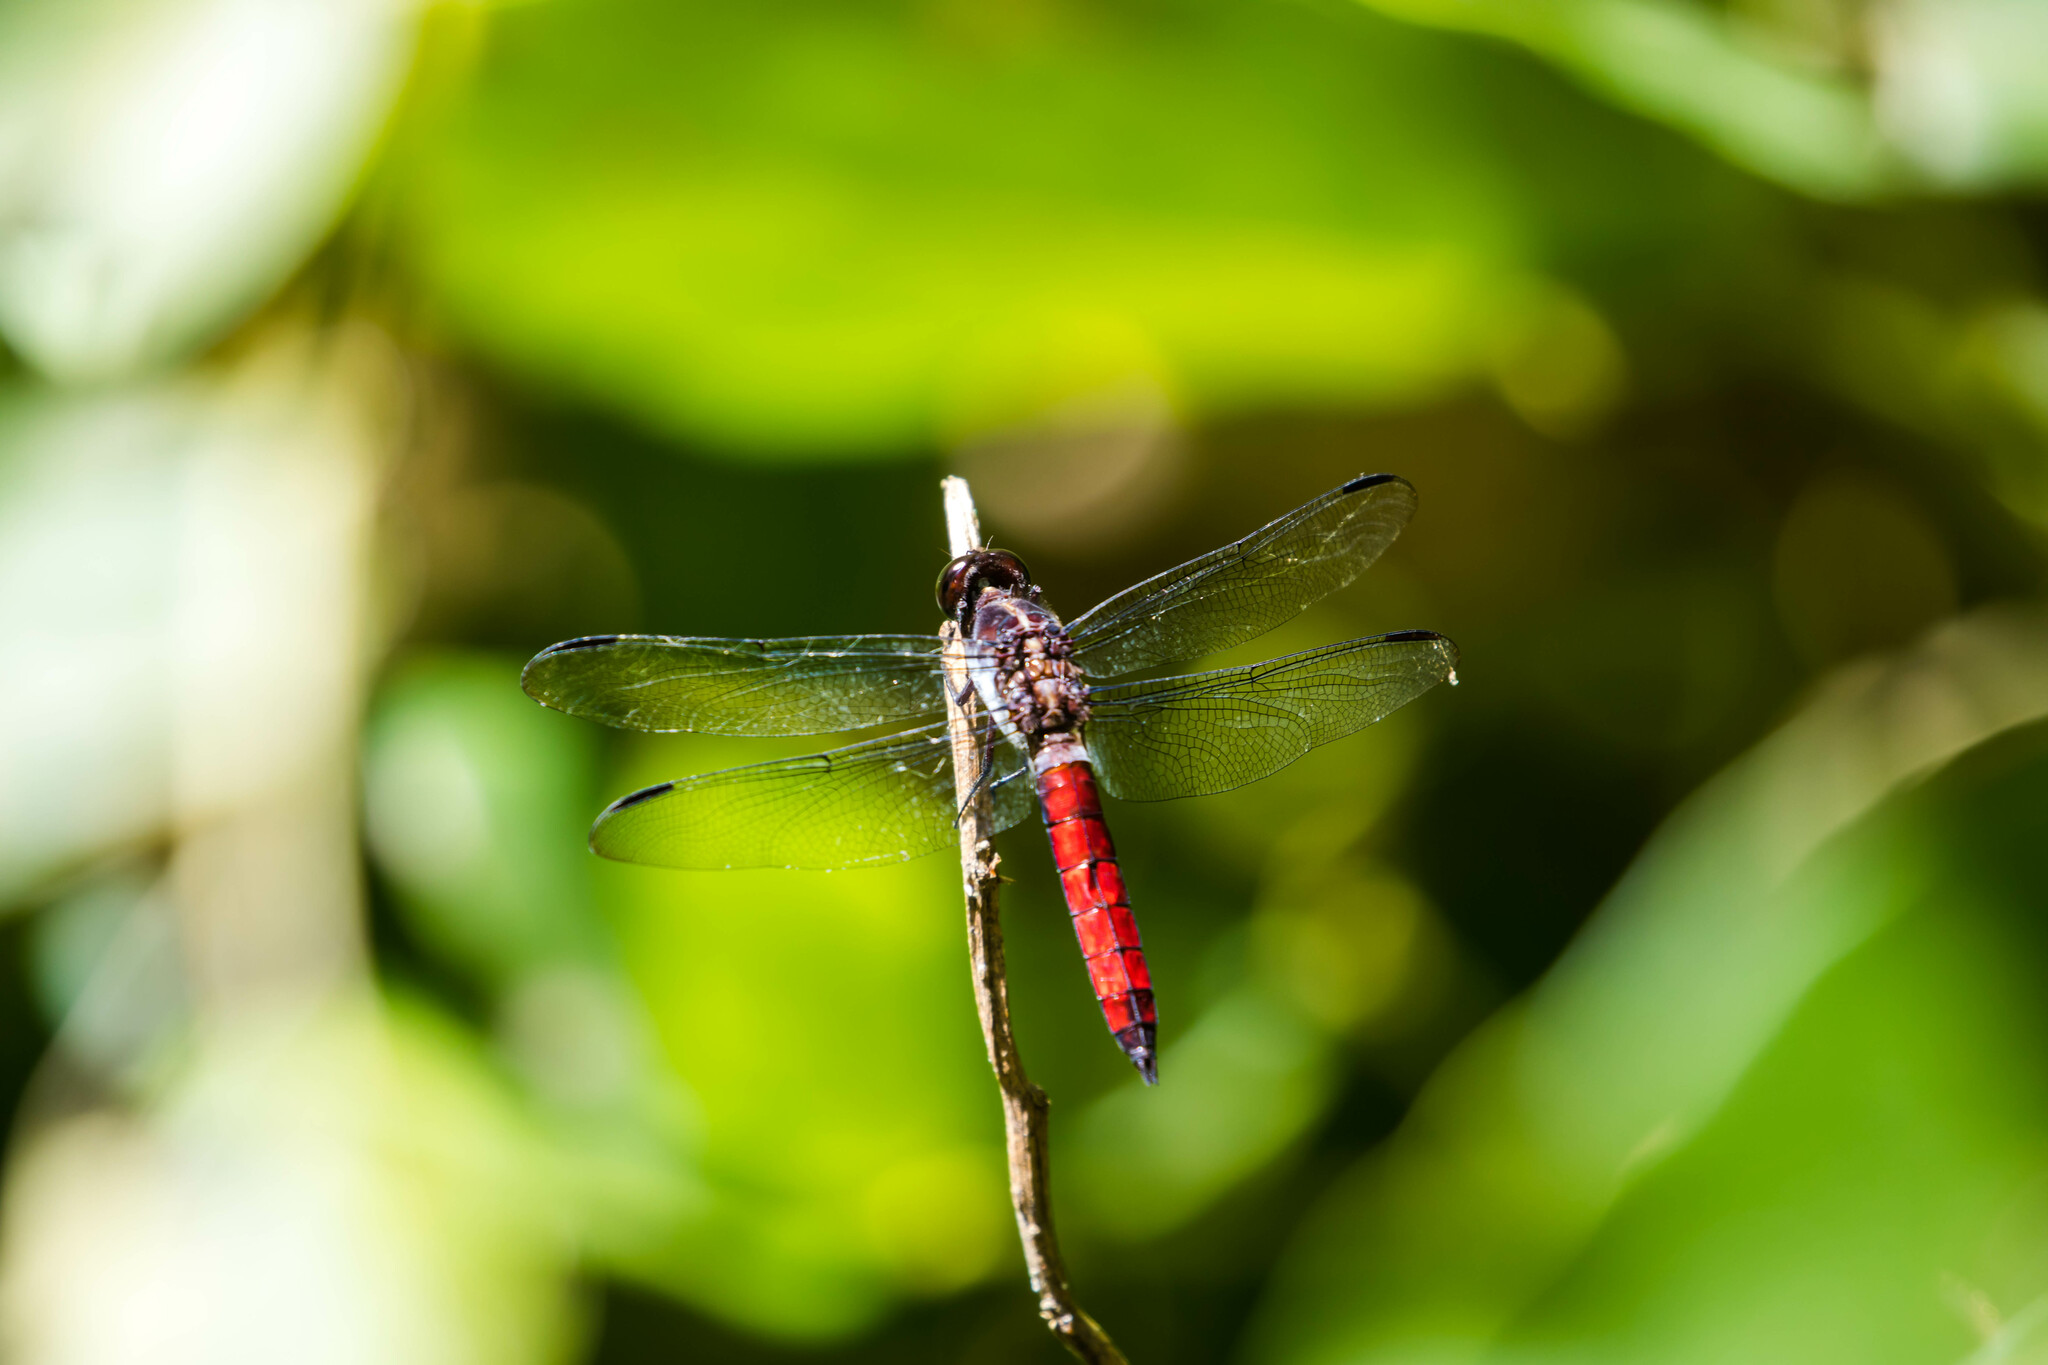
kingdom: Animalia
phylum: Arthropoda
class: Insecta
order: Odonata
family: Libellulidae
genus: Libellula
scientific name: Libellula herculea
